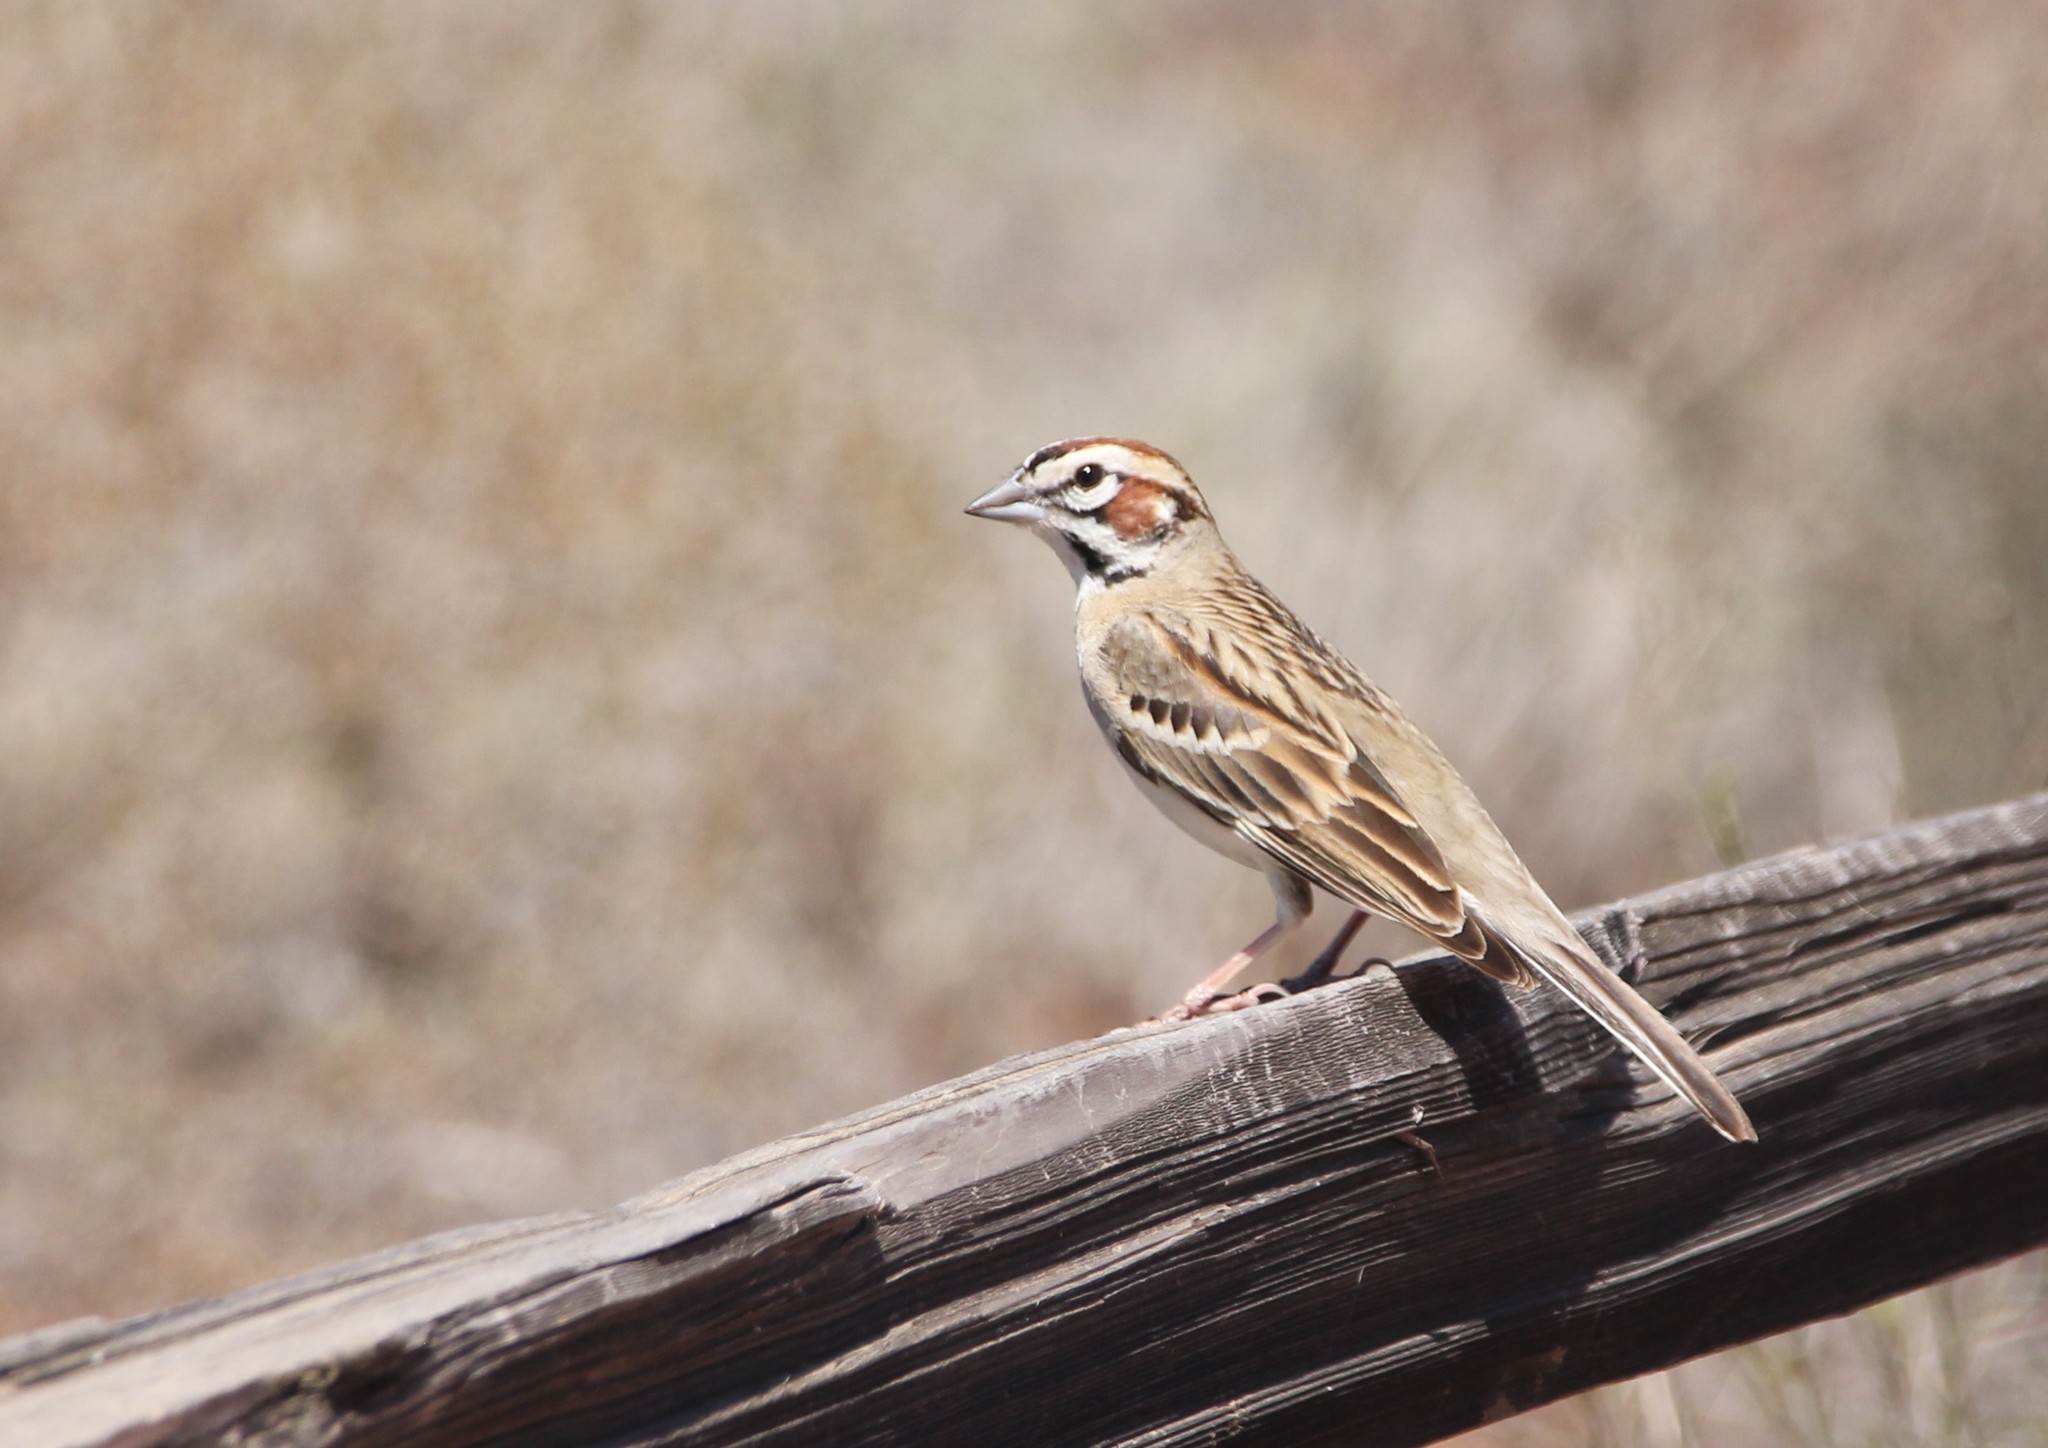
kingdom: Animalia
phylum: Chordata
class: Aves
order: Passeriformes
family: Passerellidae
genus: Chondestes
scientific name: Chondestes grammacus
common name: Lark sparrow
